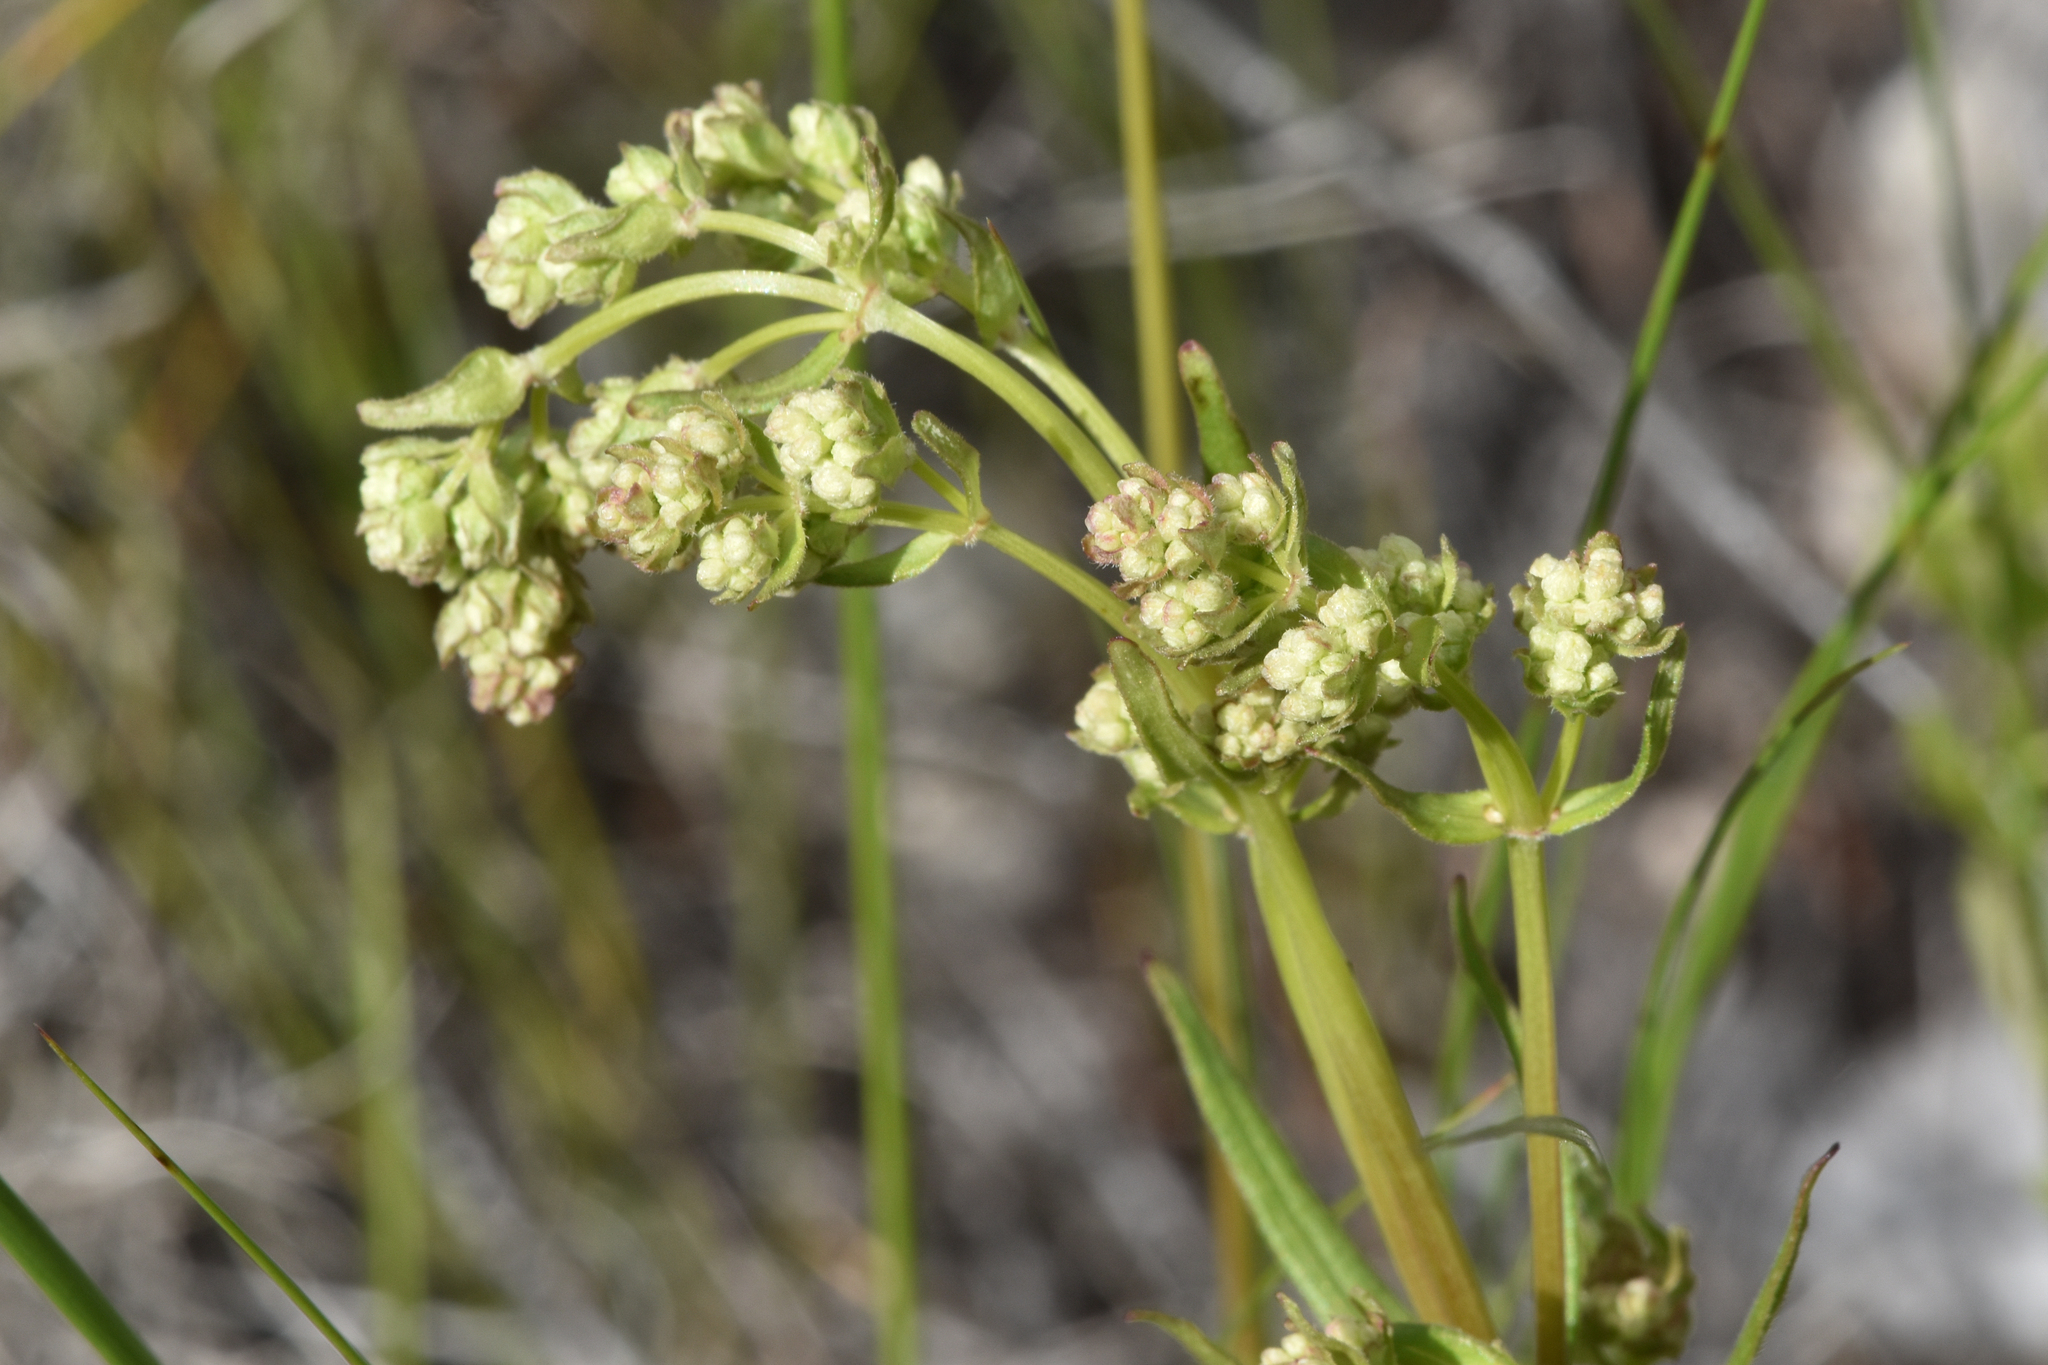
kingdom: Plantae
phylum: Tracheophyta
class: Magnoliopsida
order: Gentianales
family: Rubiaceae
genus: Galium
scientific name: Galium boreale
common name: Northern bedstraw
